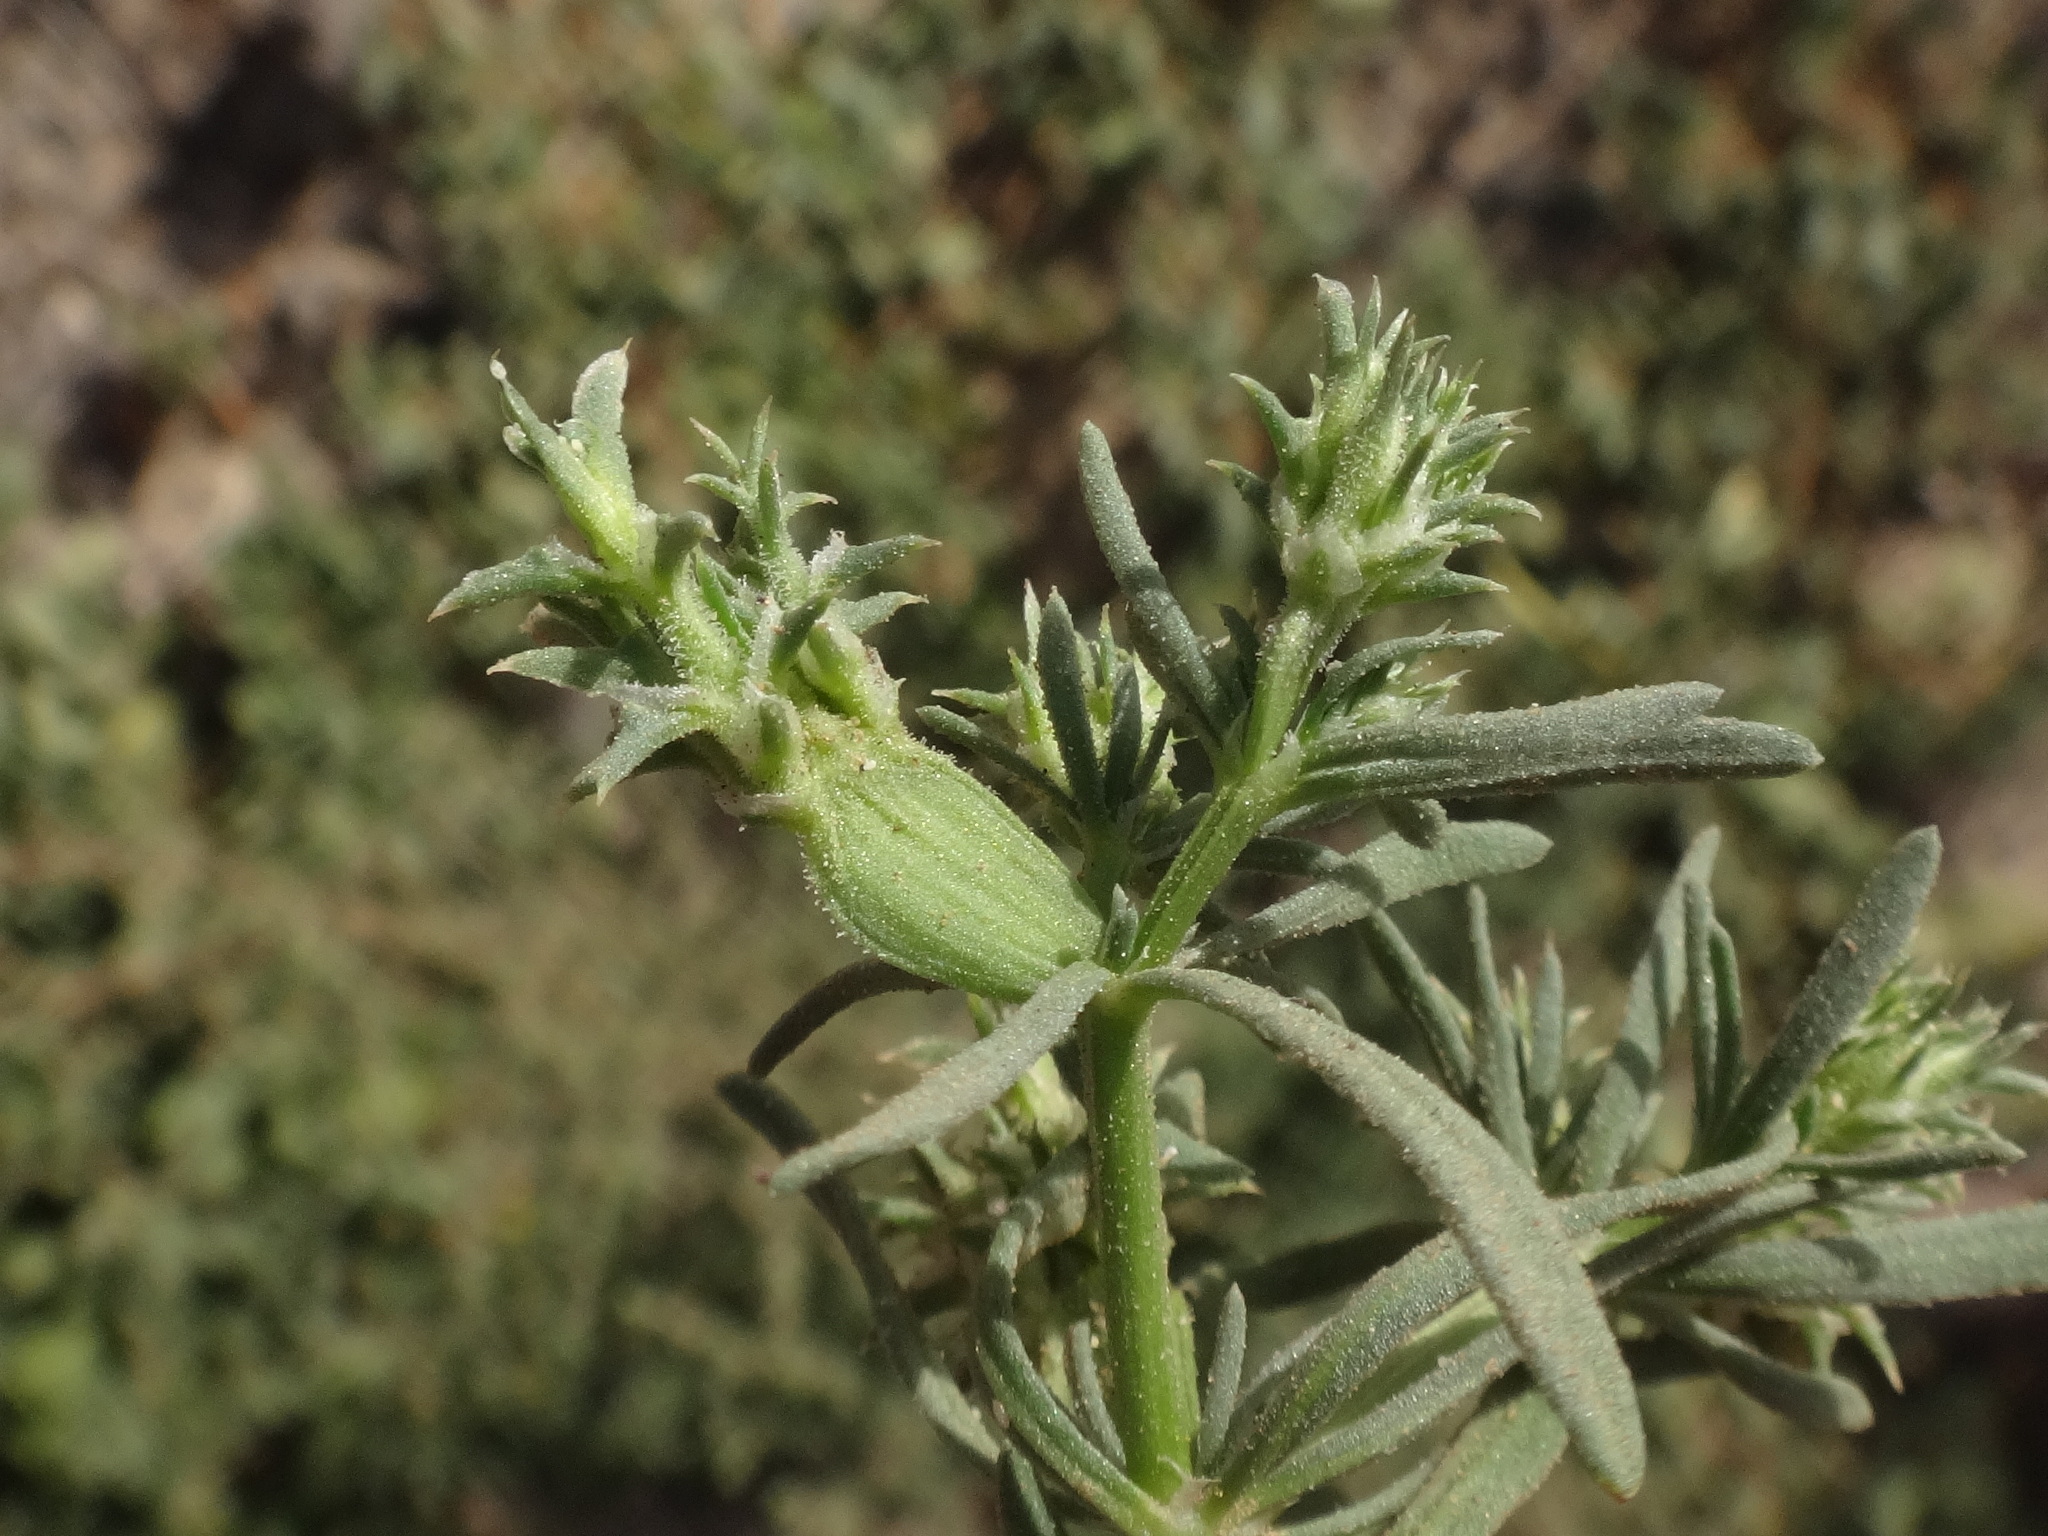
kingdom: Plantae
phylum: Tracheophyta
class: Magnoliopsida
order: Caryophyllales
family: Caryophyllaceae
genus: Pteranthus
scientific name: Pteranthus dichotomus
